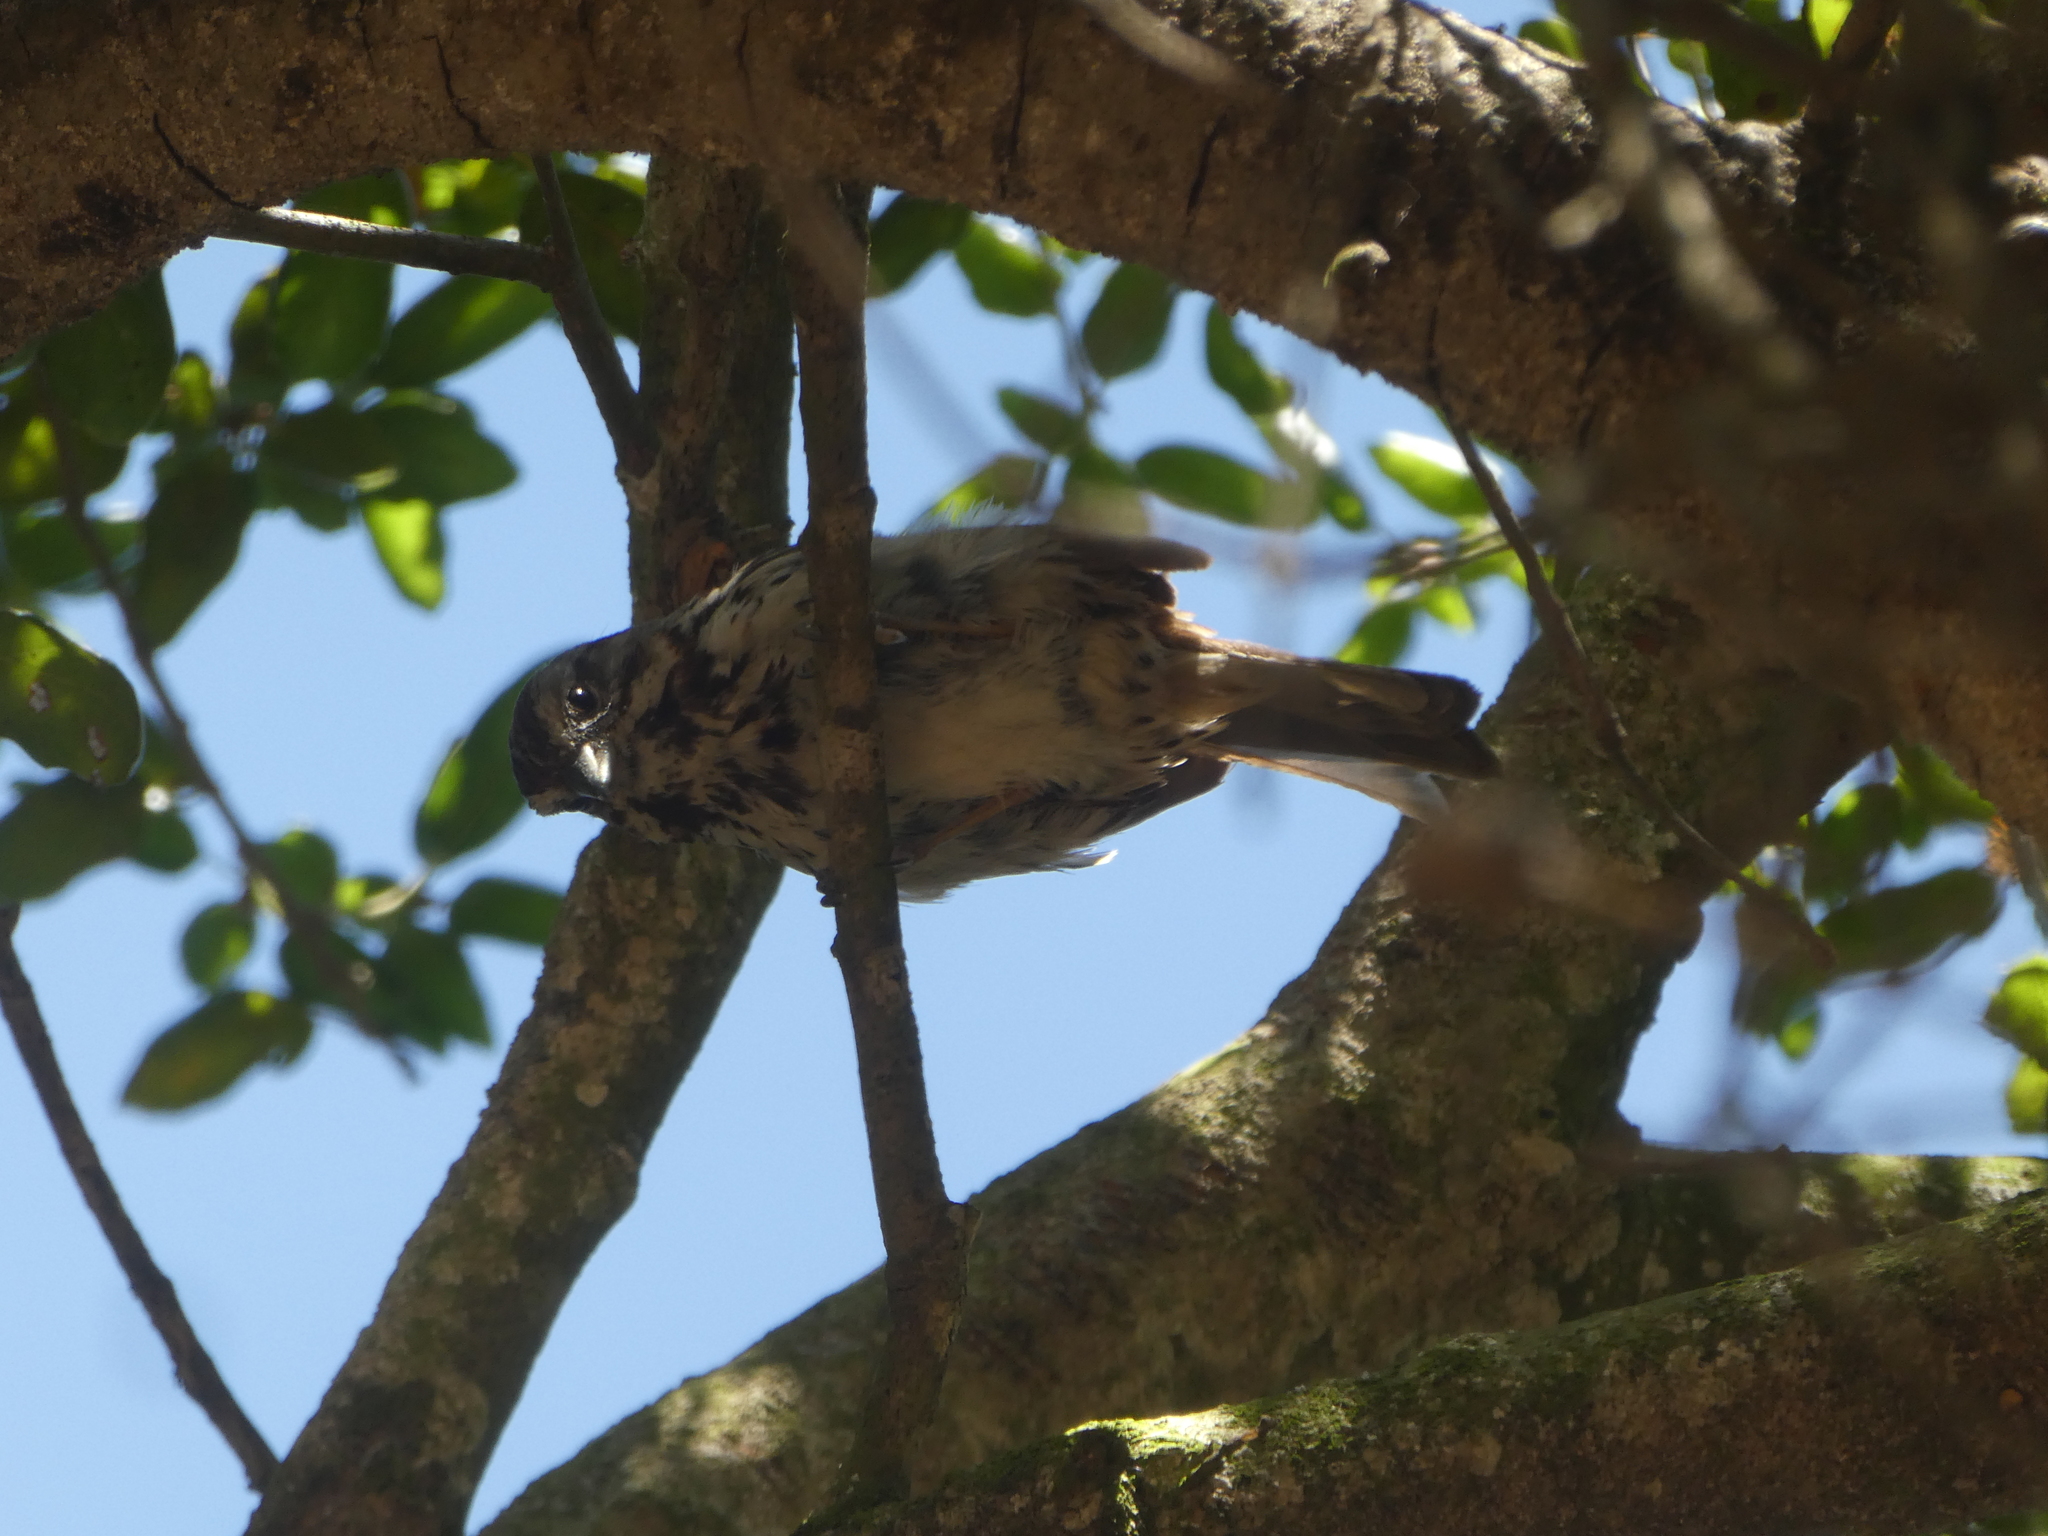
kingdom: Animalia
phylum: Chordata
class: Aves
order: Passeriformes
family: Passerellidae
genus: Melospiza
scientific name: Melospiza melodia
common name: Song sparrow
